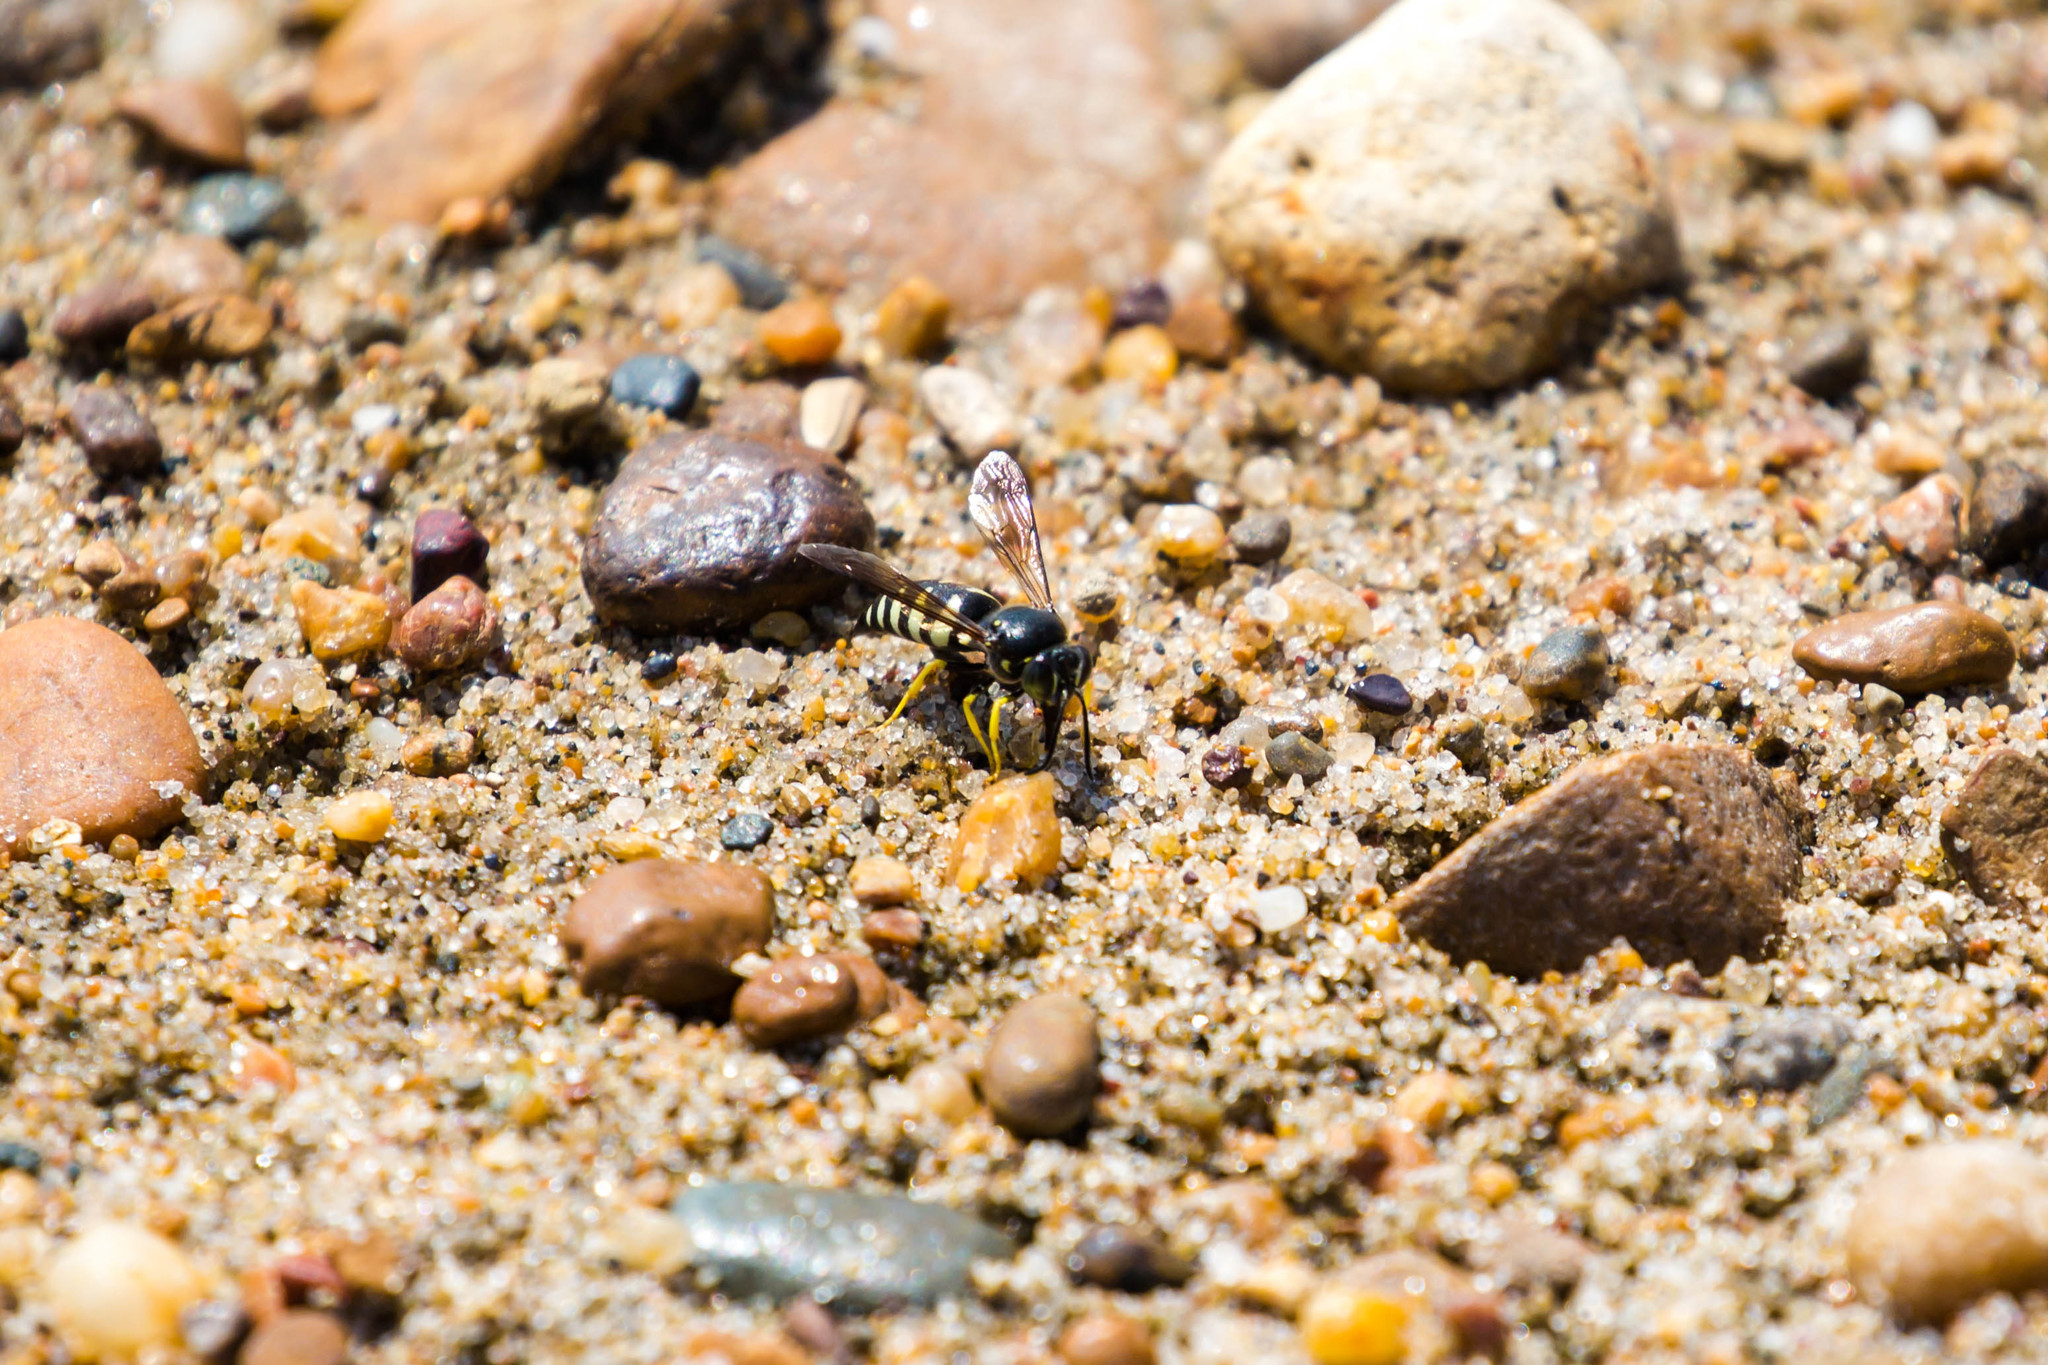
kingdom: Animalia
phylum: Arthropoda
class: Insecta
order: Hymenoptera
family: Crabronidae
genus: Bicyrtes
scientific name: Bicyrtes quadrifasciatus
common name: Four-banded stink bug hunter wasp
